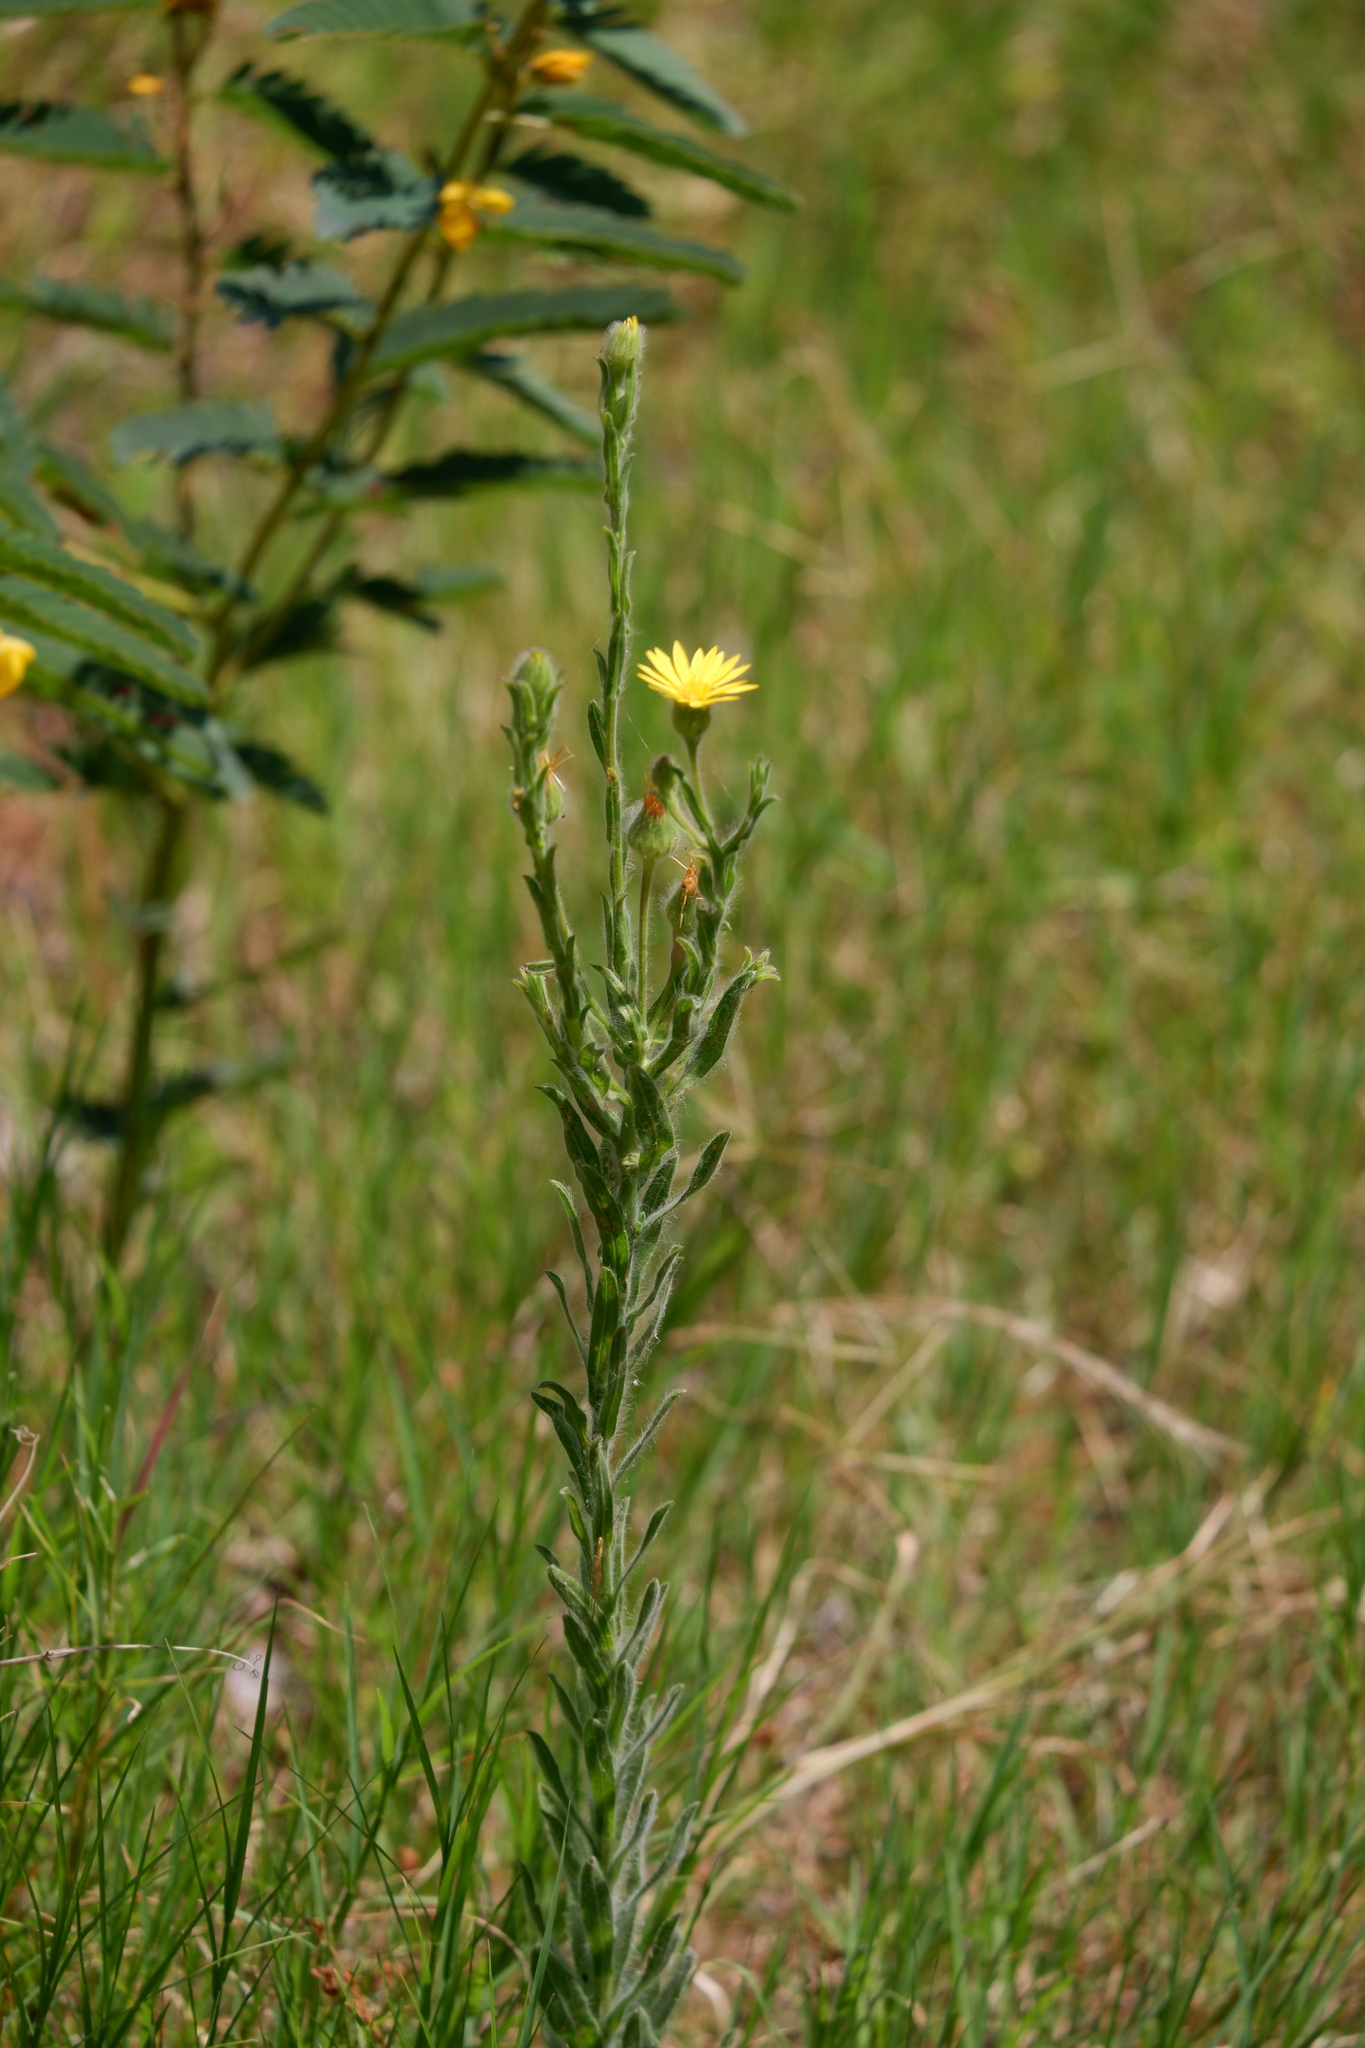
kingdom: Plantae
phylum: Tracheophyta
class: Magnoliopsida
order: Asterales
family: Asteraceae
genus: Bradburia
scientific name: Bradburia pilosa
